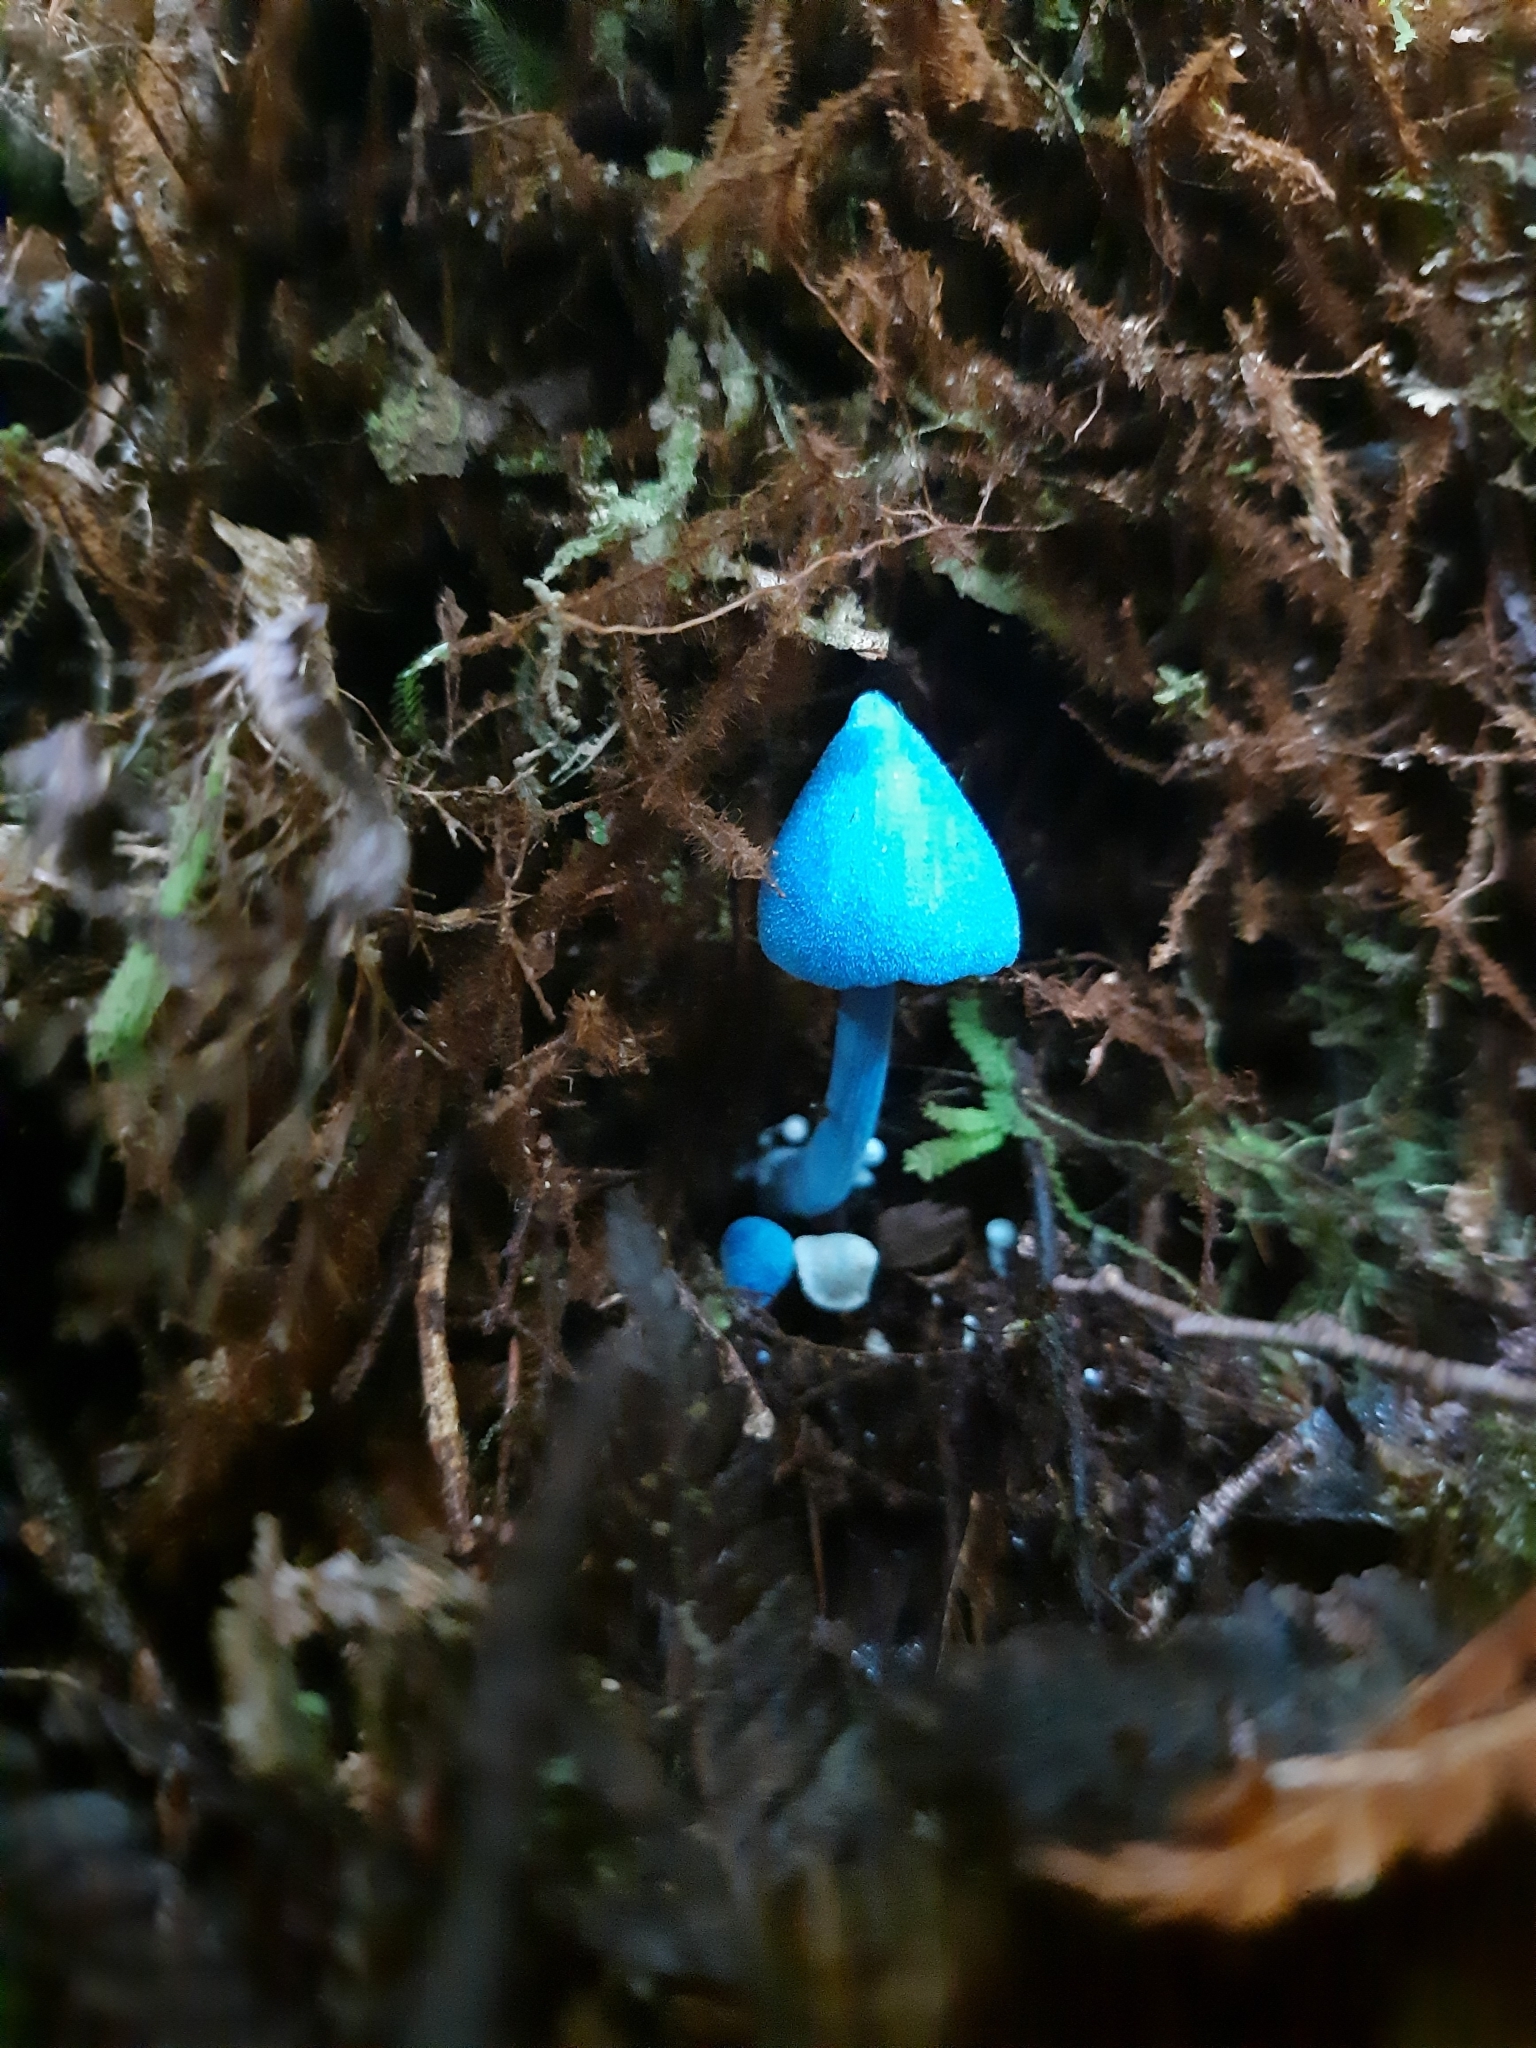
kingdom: Fungi
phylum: Basidiomycota
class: Agaricomycetes
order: Agaricales
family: Entolomataceae
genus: Entoloma
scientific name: Entoloma hochstetteri
